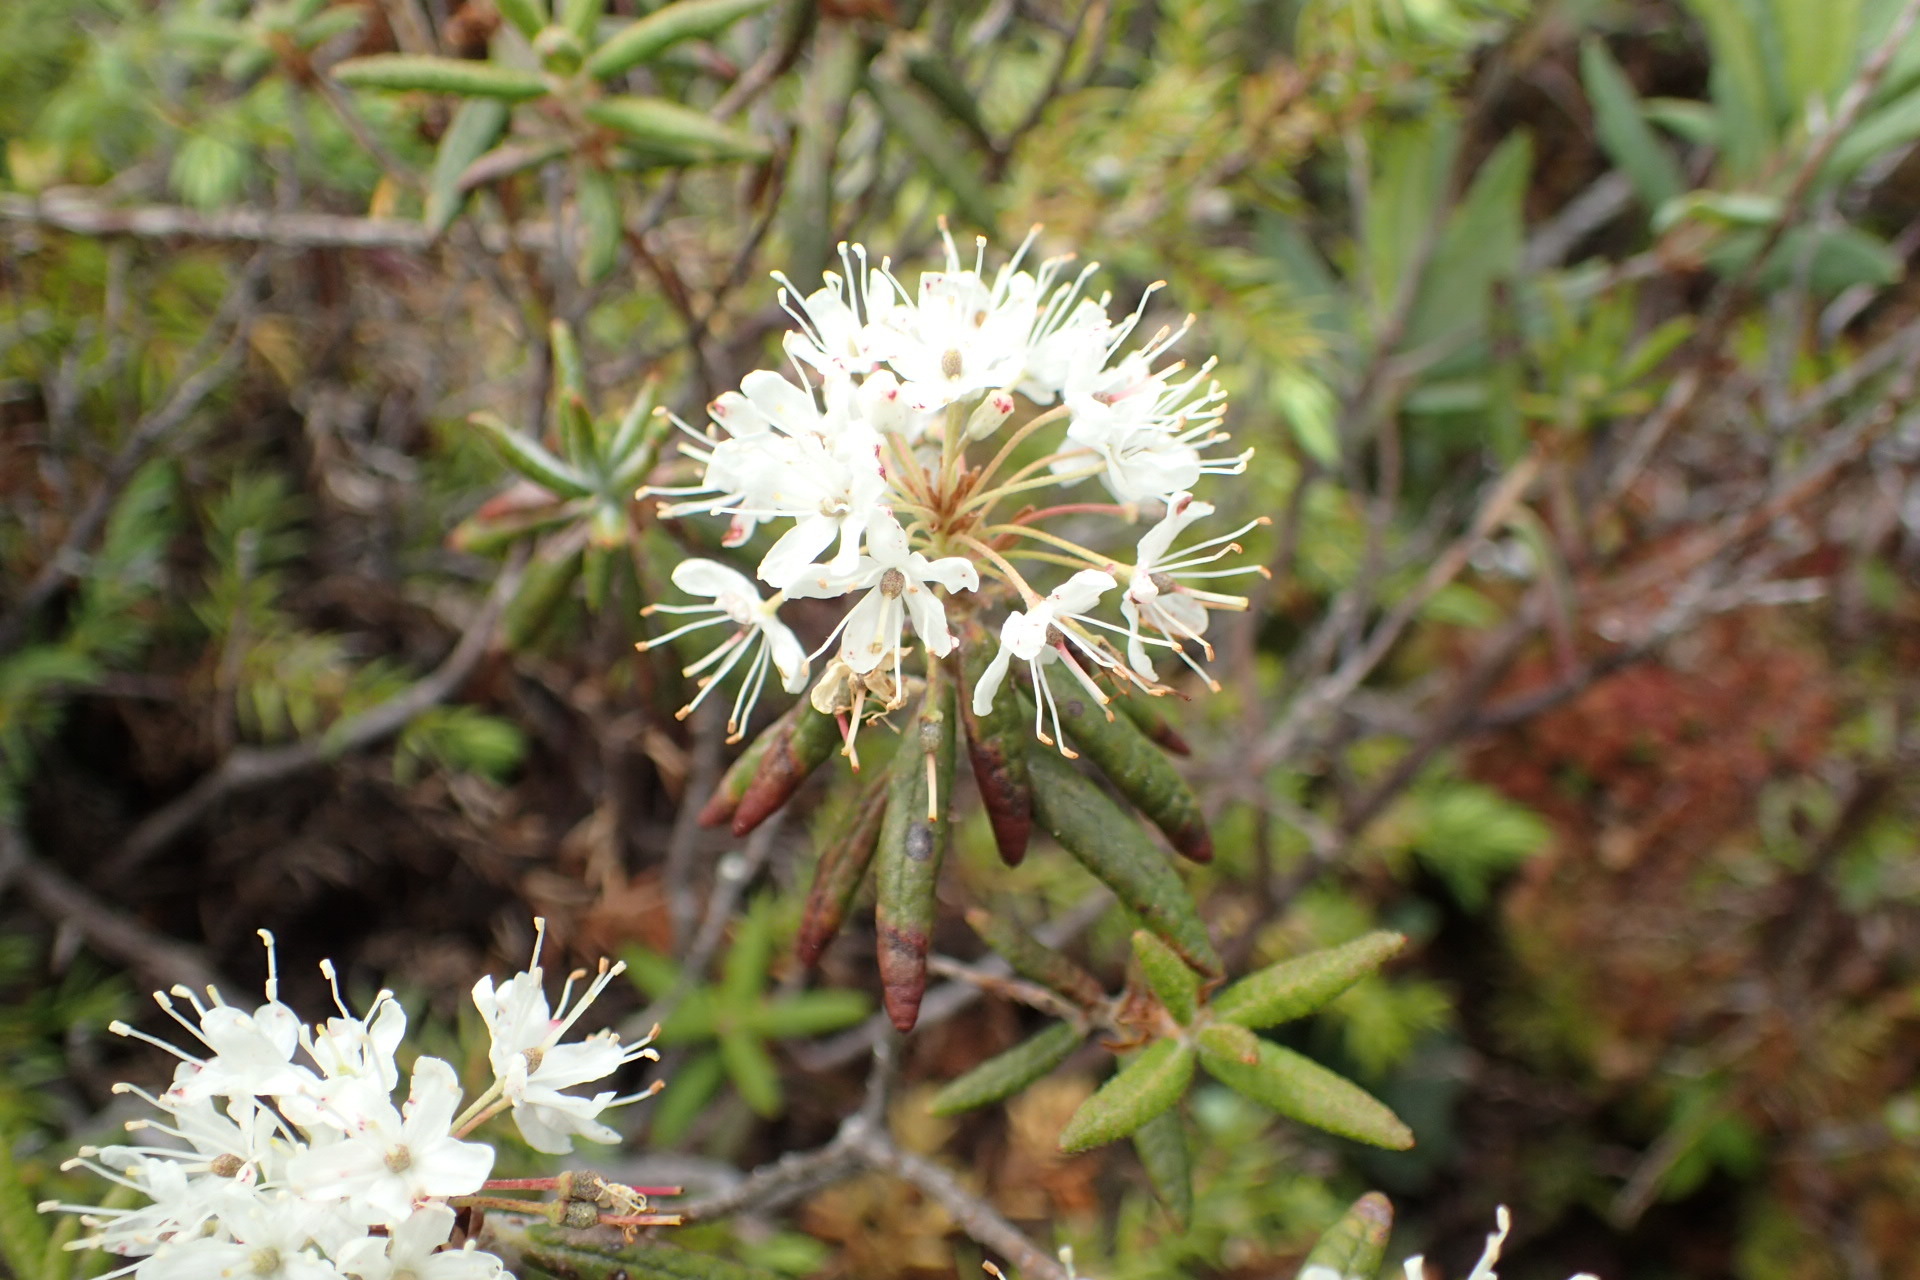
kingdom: Plantae
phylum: Tracheophyta
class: Magnoliopsida
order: Ericales
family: Ericaceae
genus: Rhododendron
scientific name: Rhododendron groenlandicum
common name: Bog labrador tea
